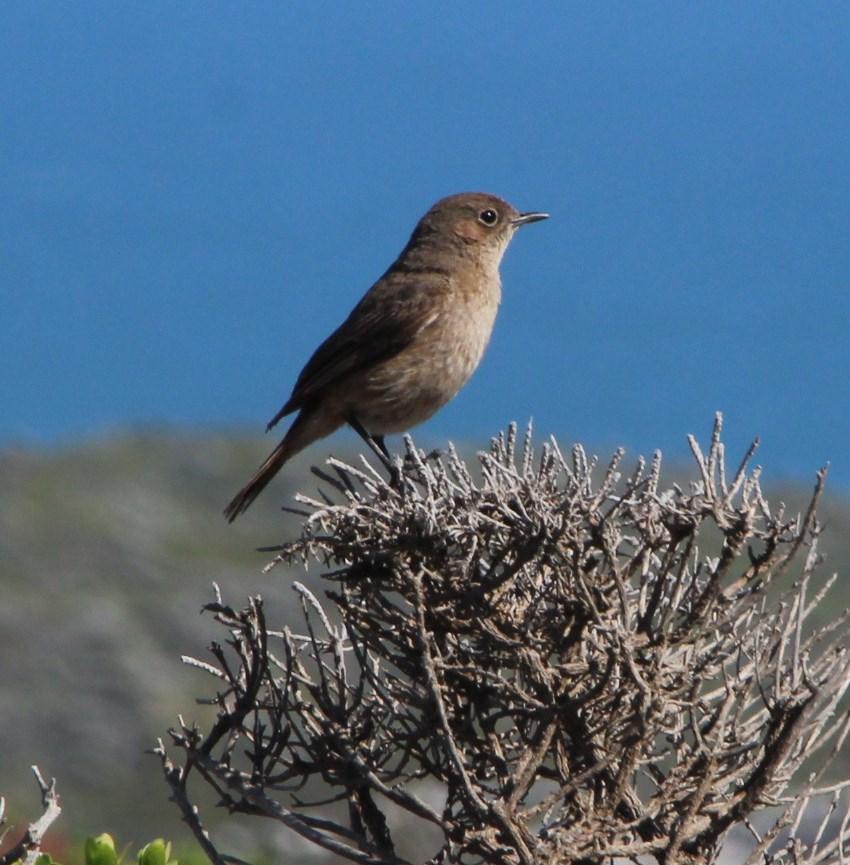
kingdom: Animalia
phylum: Chordata
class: Aves
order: Passeriformes
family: Muscicapidae
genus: Oenanthe
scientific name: Oenanthe familiaris
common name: Familiar chat
